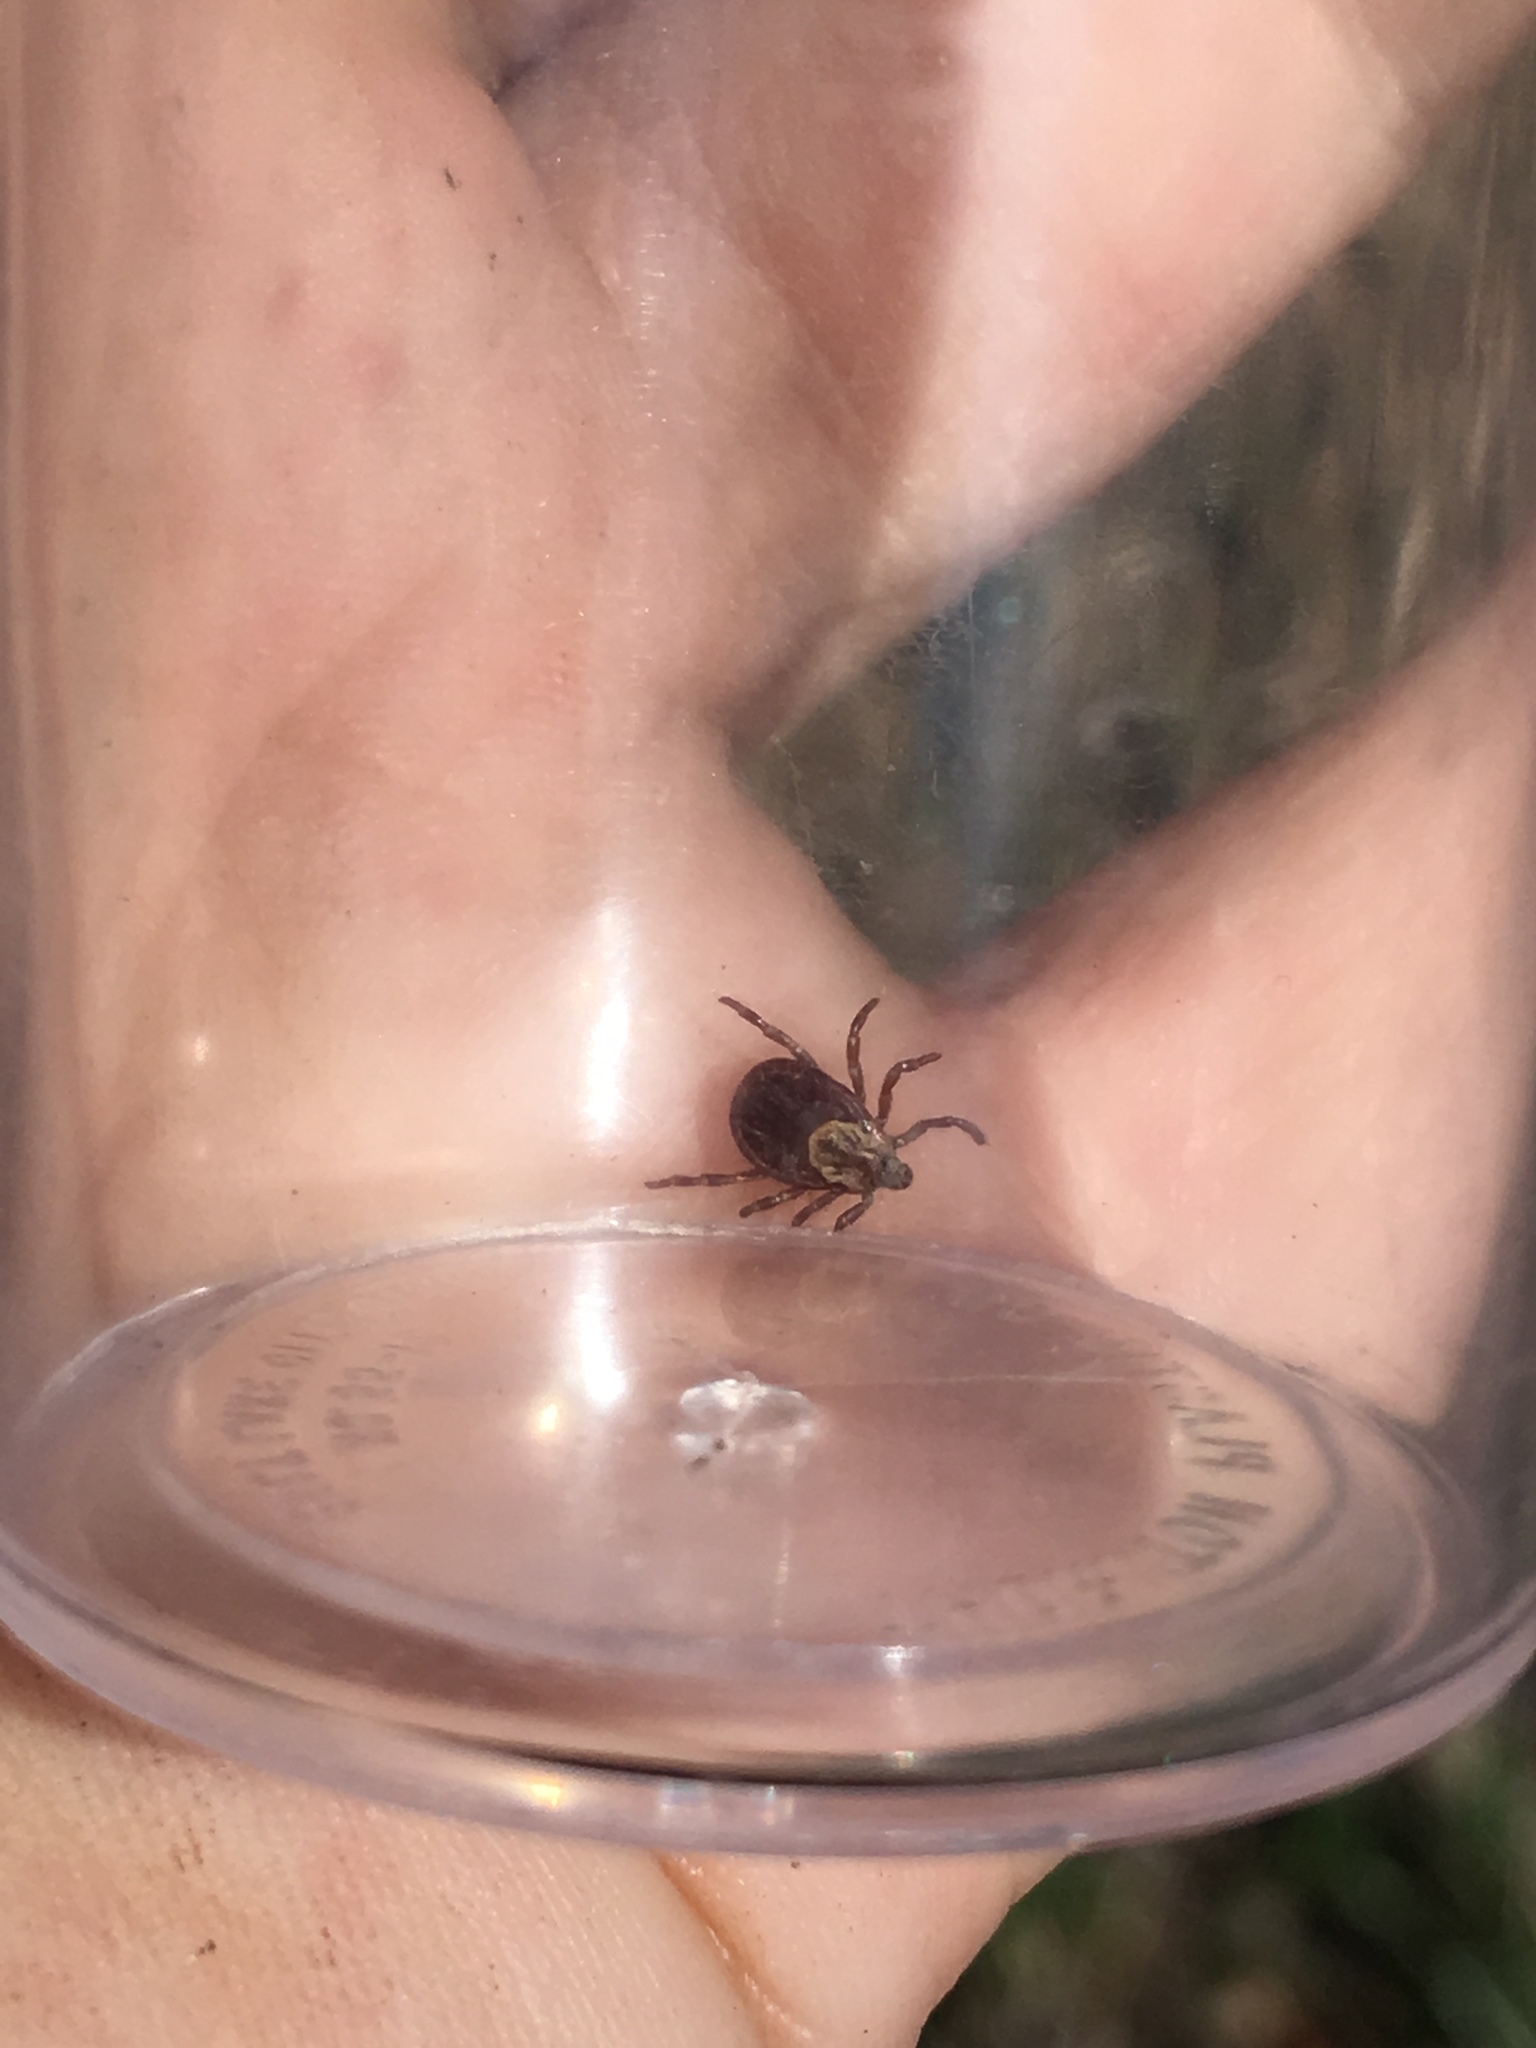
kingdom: Animalia
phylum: Arthropoda
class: Arachnida
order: Ixodida
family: Ixodidae
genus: Dermacentor
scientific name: Dermacentor variabilis
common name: American dog tick
